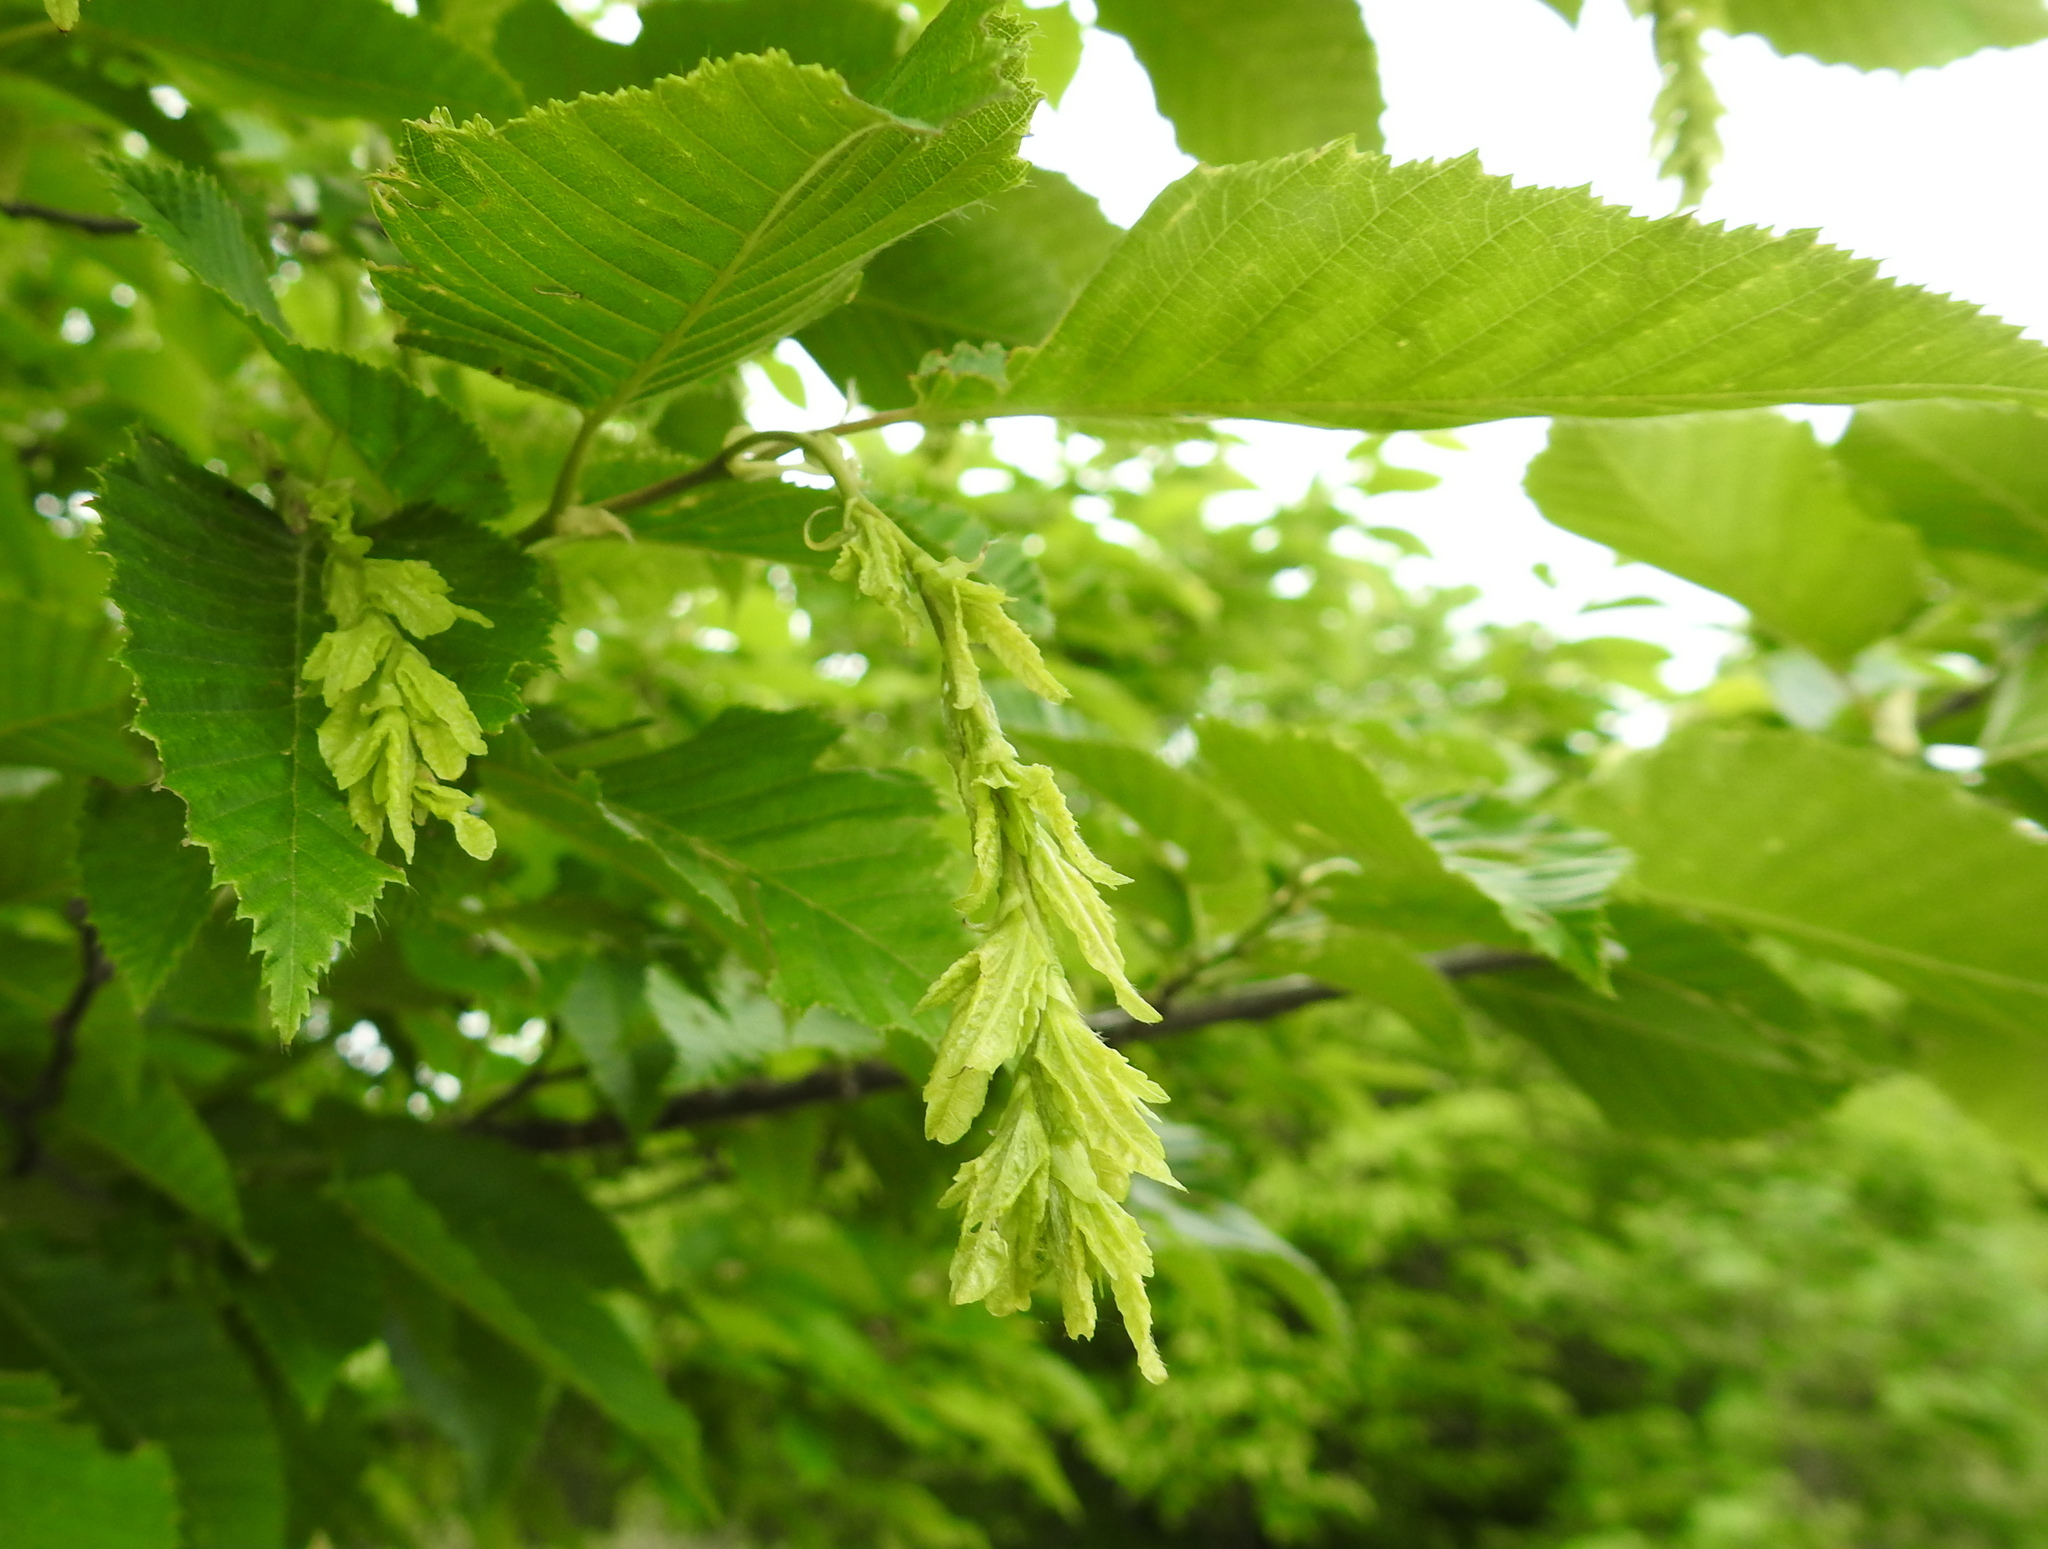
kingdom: Plantae
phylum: Tracheophyta
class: Magnoliopsida
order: Fagales
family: Betulaceae
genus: Carpinus
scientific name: Carpinus betulus
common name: Hornbeam
